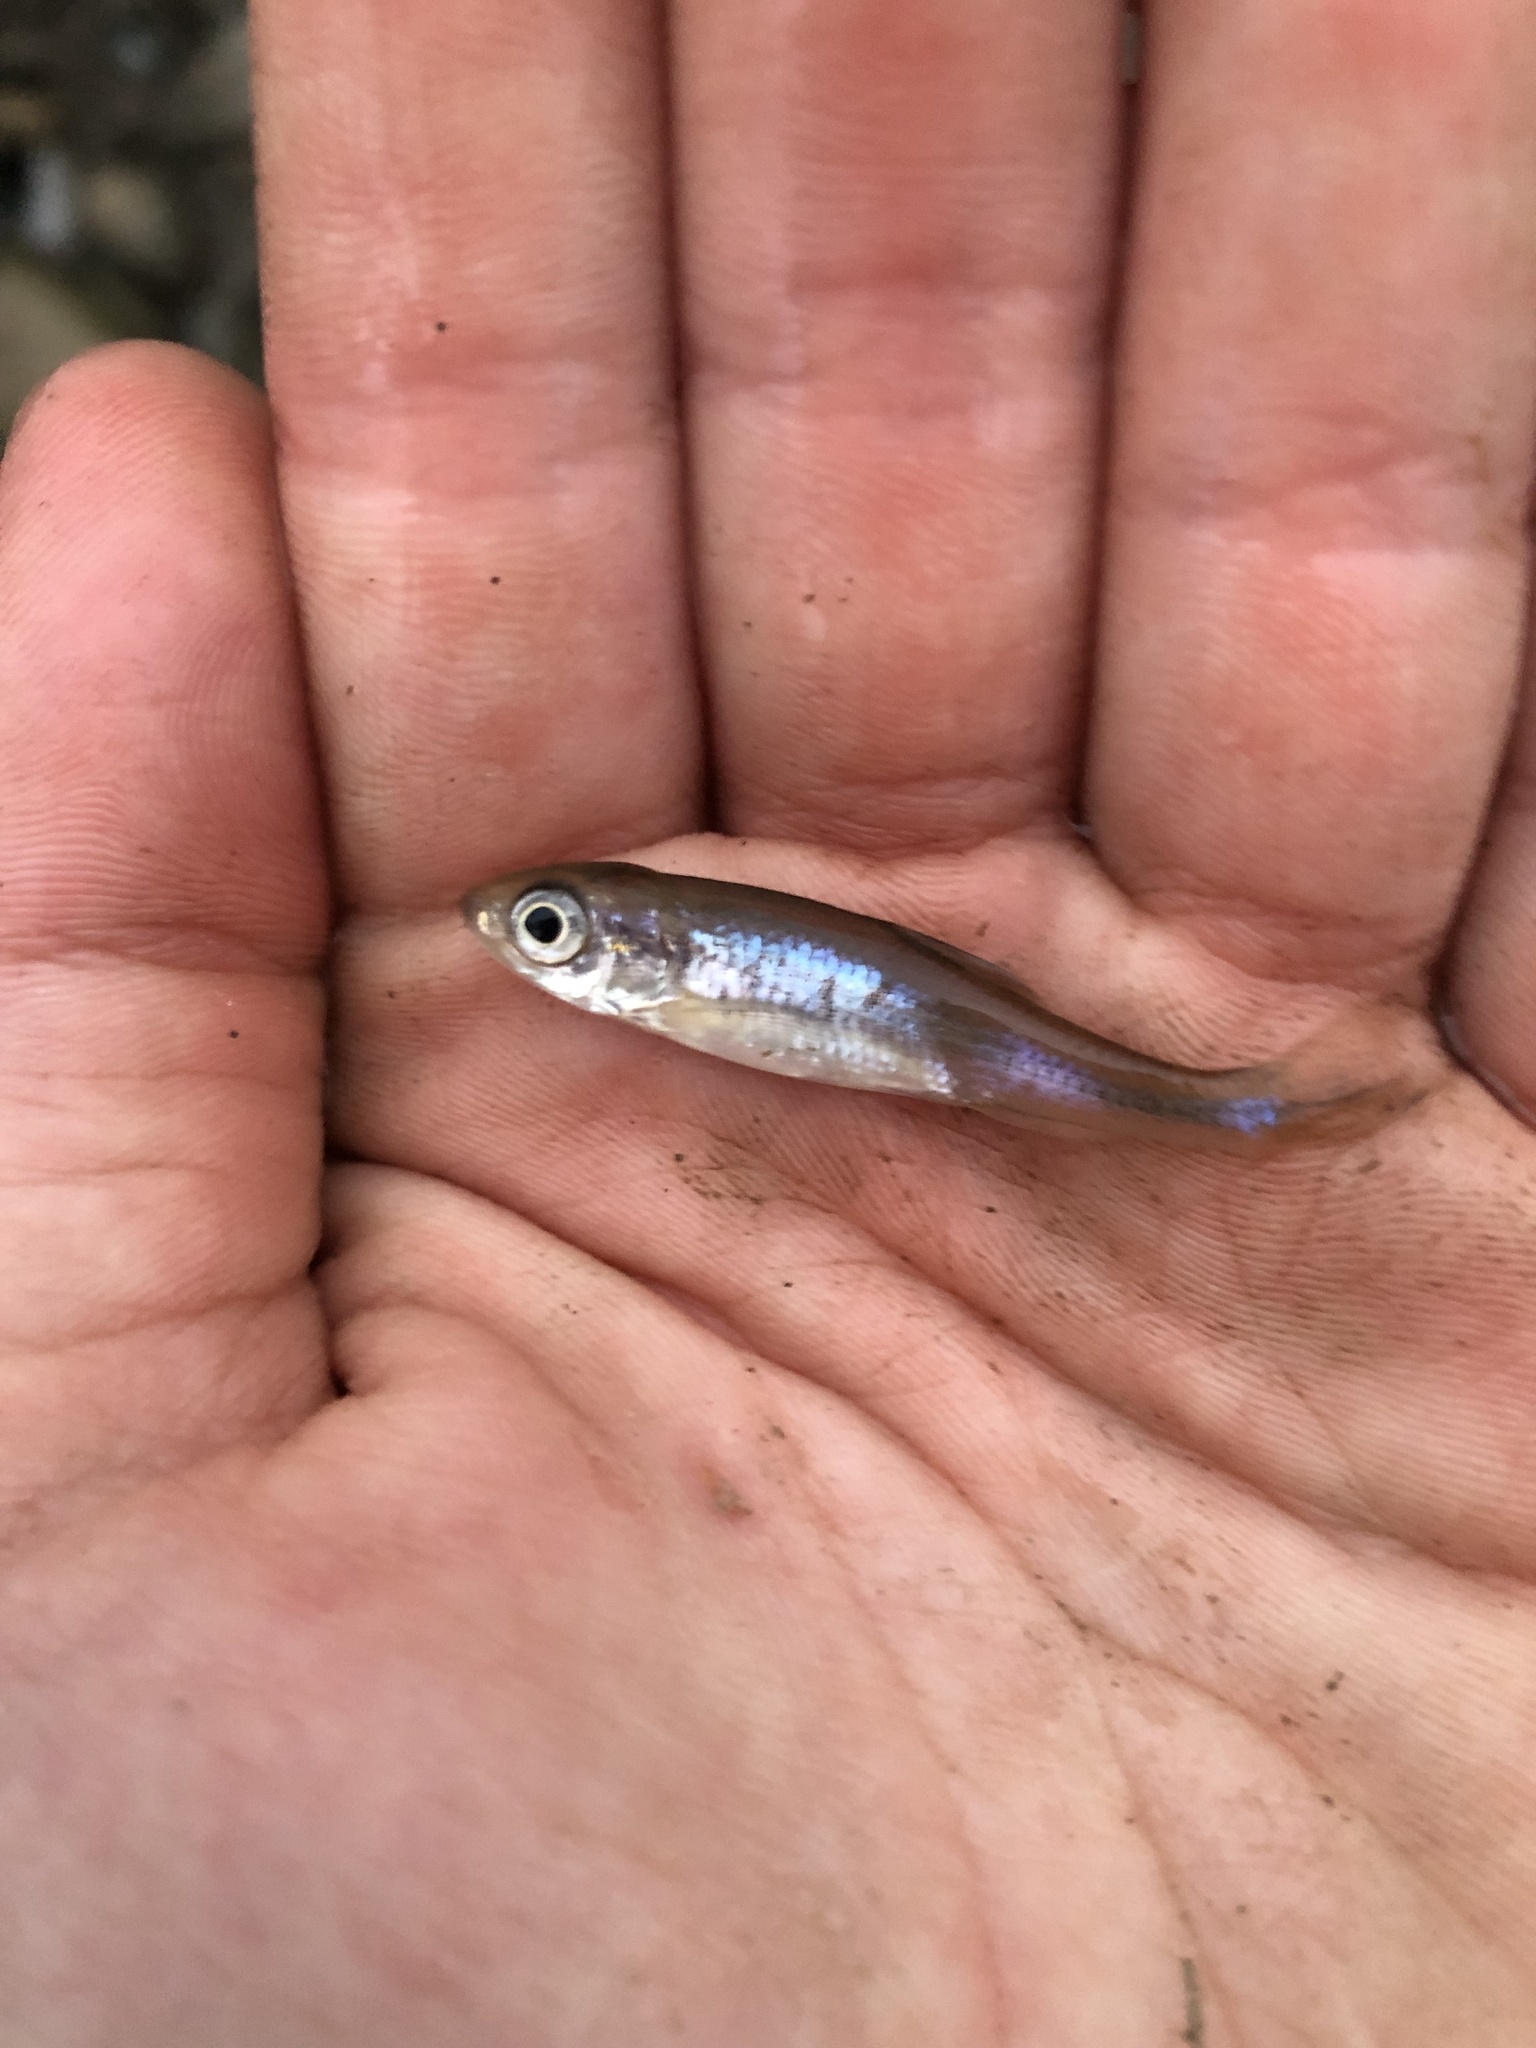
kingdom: Animalia
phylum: Chordata
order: Cypriniformes
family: Cyprinidae
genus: Luxilus
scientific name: Luxilus cornutus
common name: Common shiner
